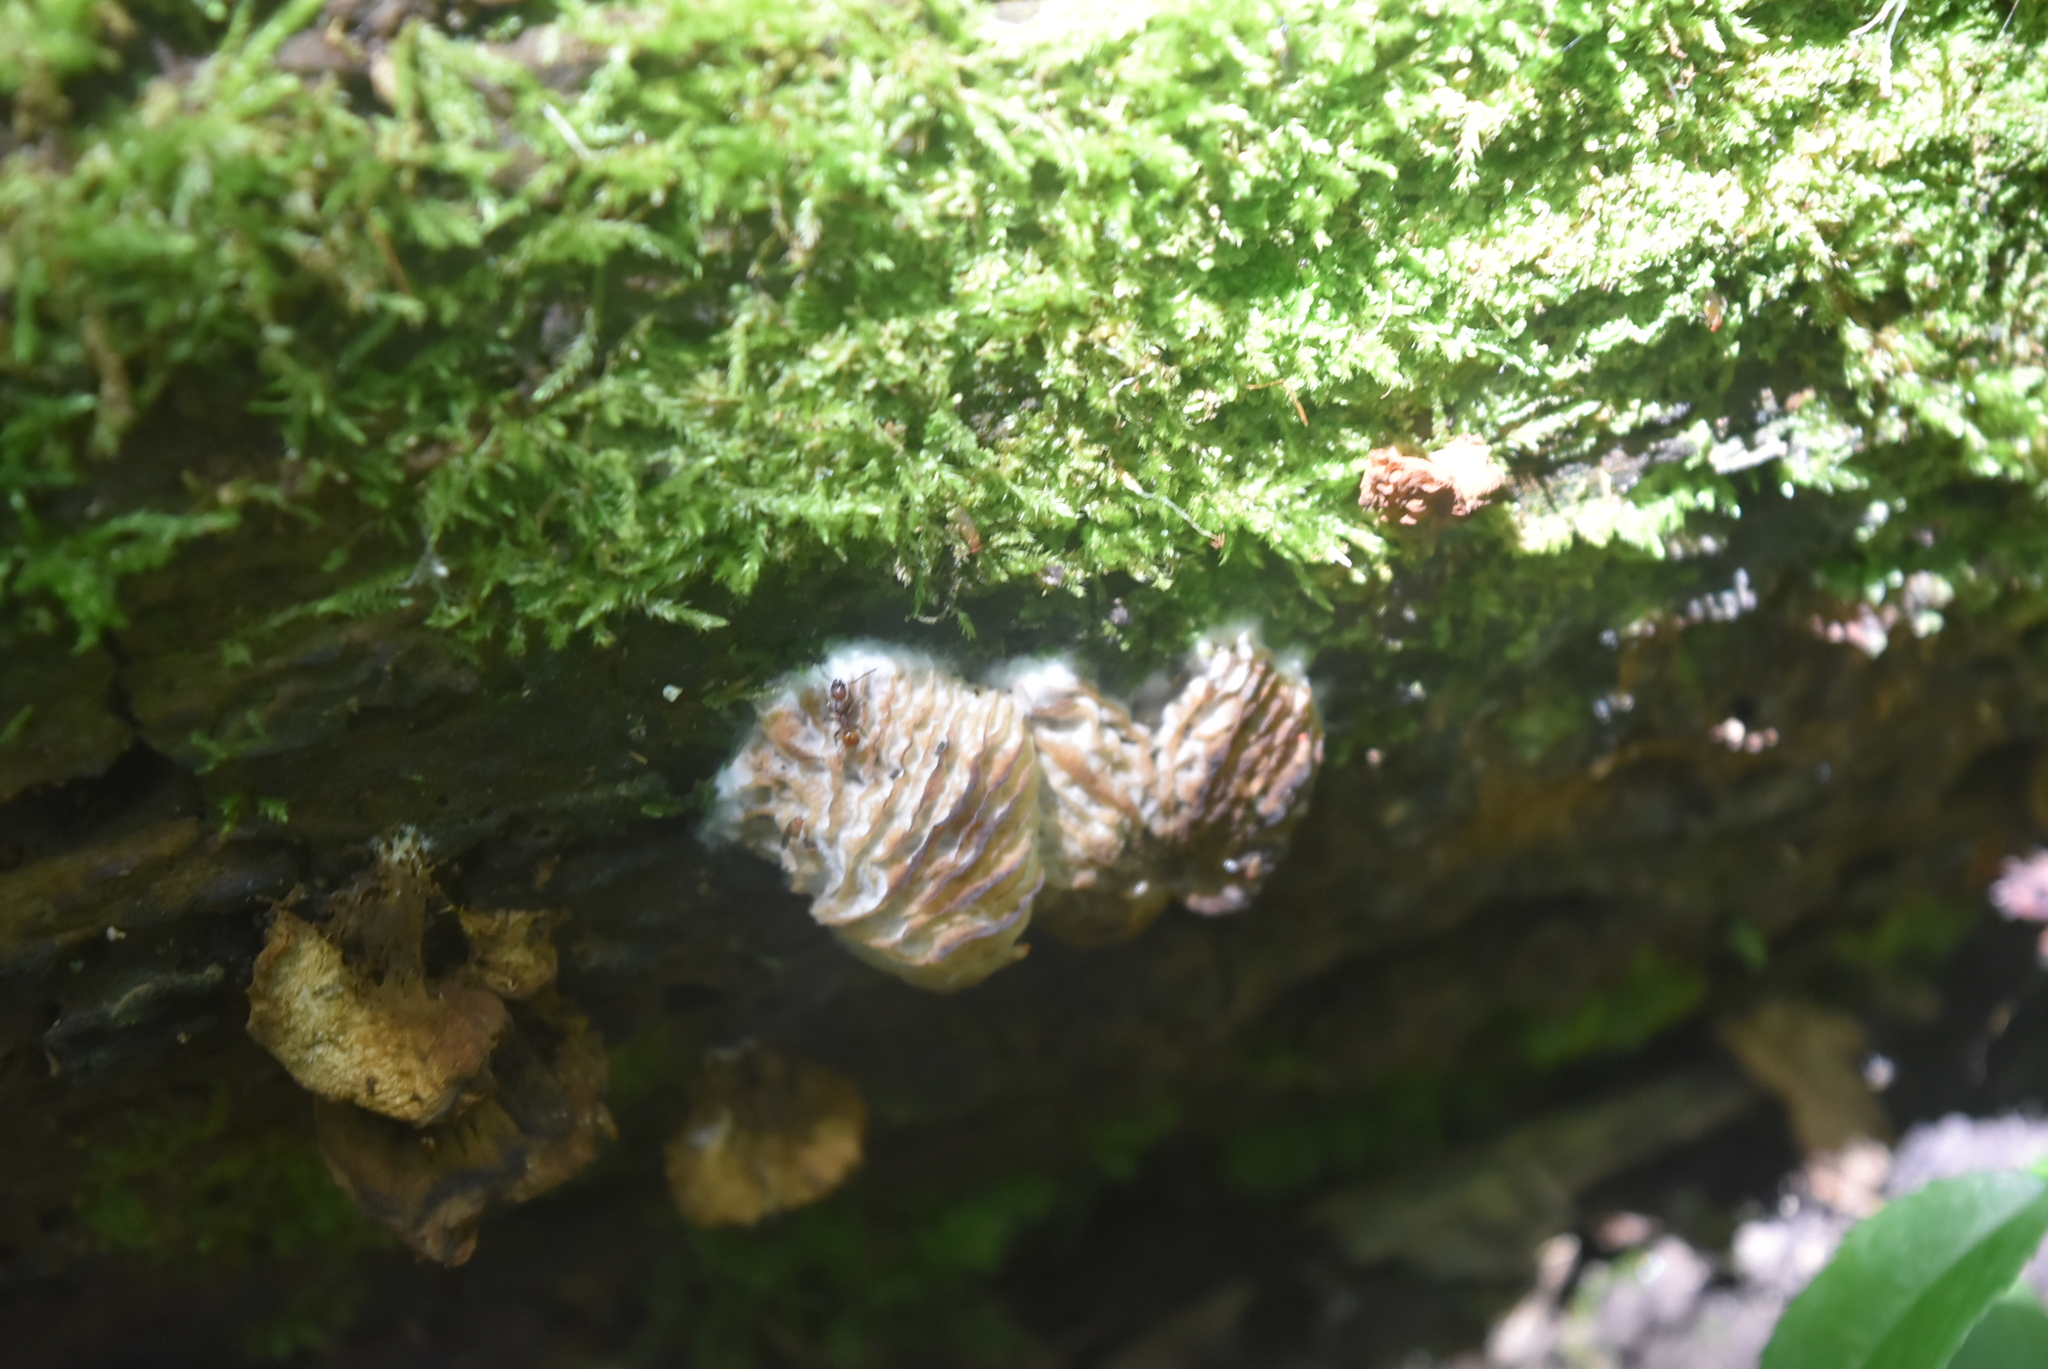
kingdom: Fungi
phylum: Ascomycota
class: Sordariomycetes
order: Hypocreales
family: Bionectriaceae
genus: Nectriopsis
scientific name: Nectriopsis tremellicola
